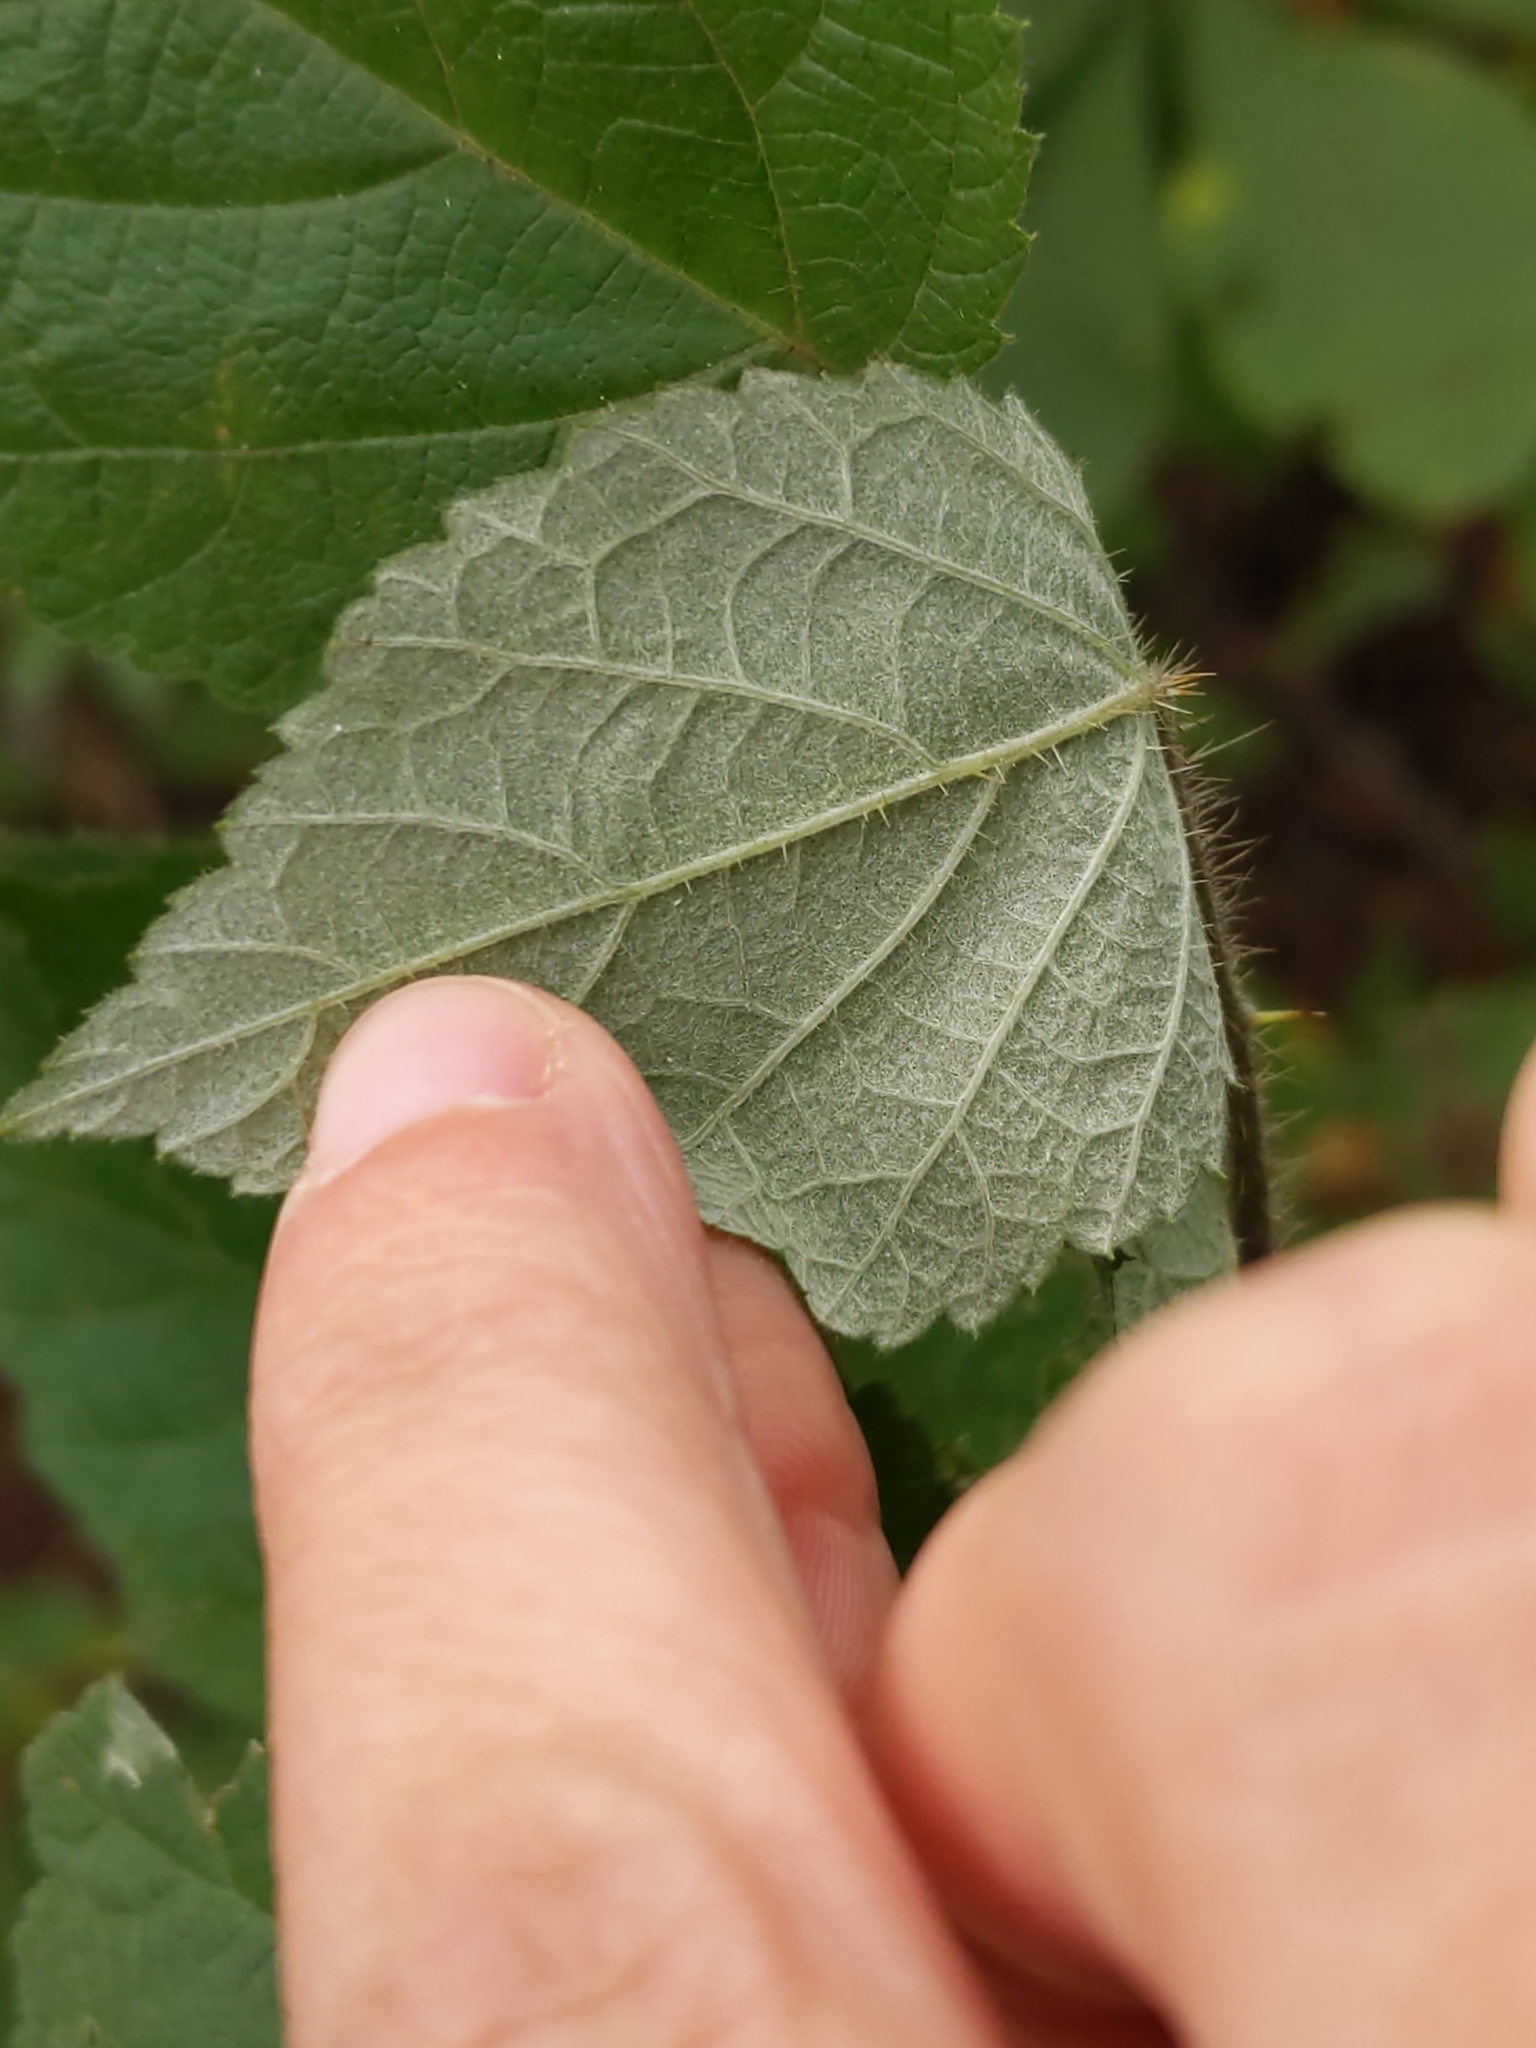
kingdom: Animalia
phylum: Arthropoda
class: Insecta
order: Diptera
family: Agromyzidae
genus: Agromyza
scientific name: Agromyza vockerothi
